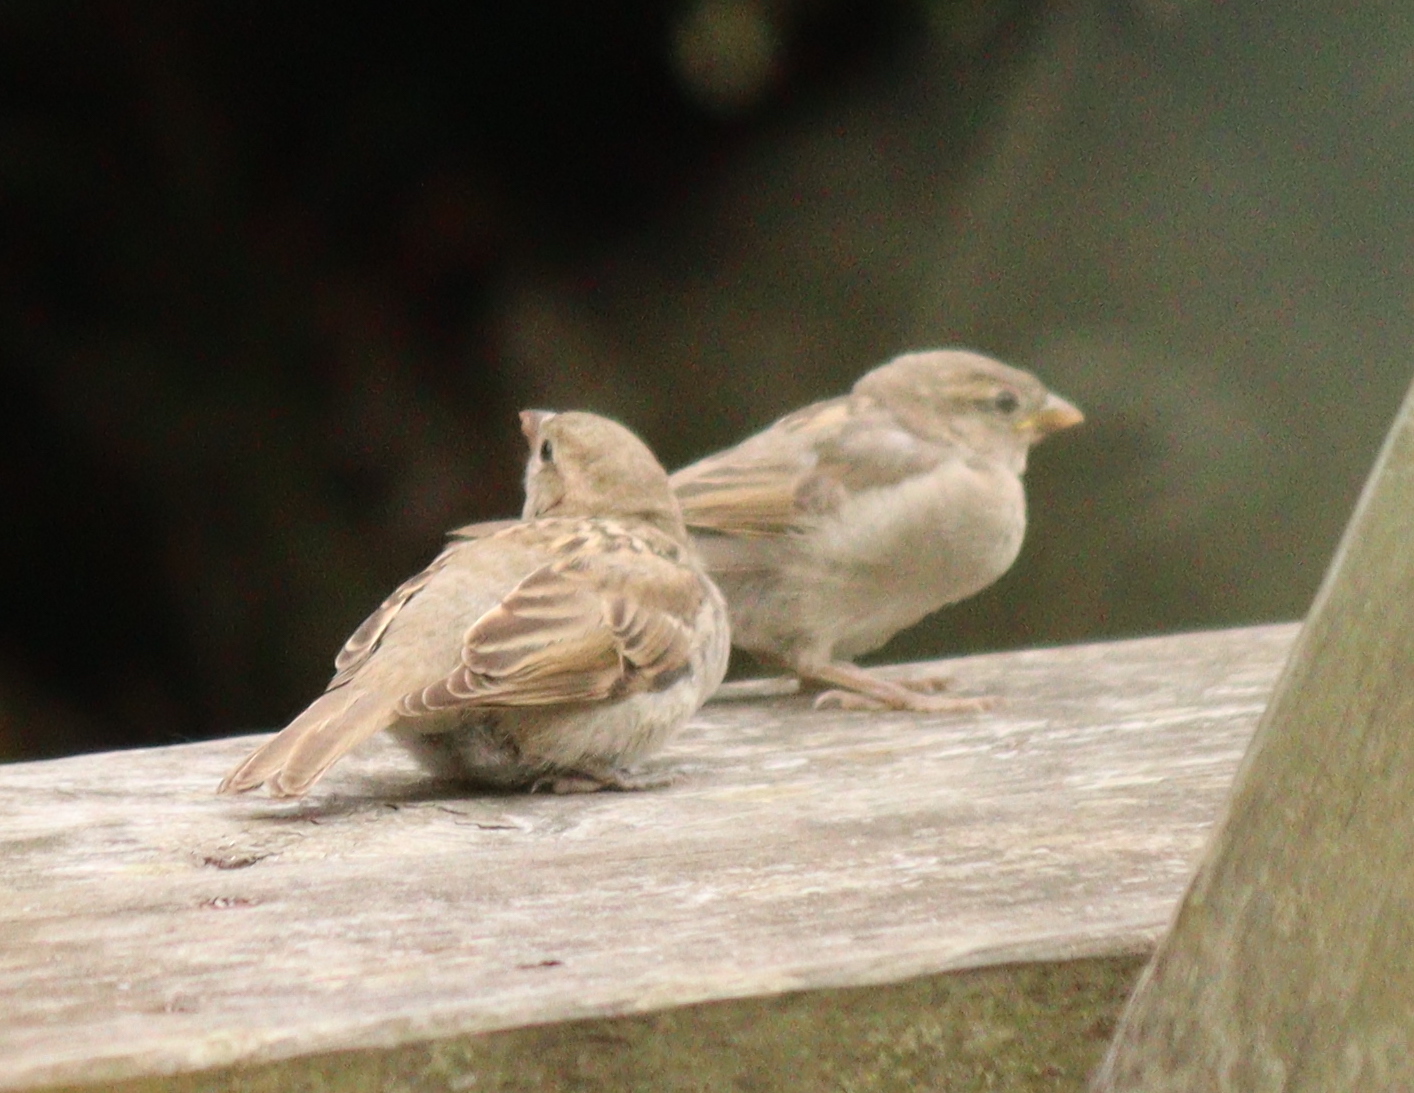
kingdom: Animalia
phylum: Chordata
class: Aves
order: Passeriformes
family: Passeridae
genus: Passer
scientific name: Passer domesticus
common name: House sparrow
